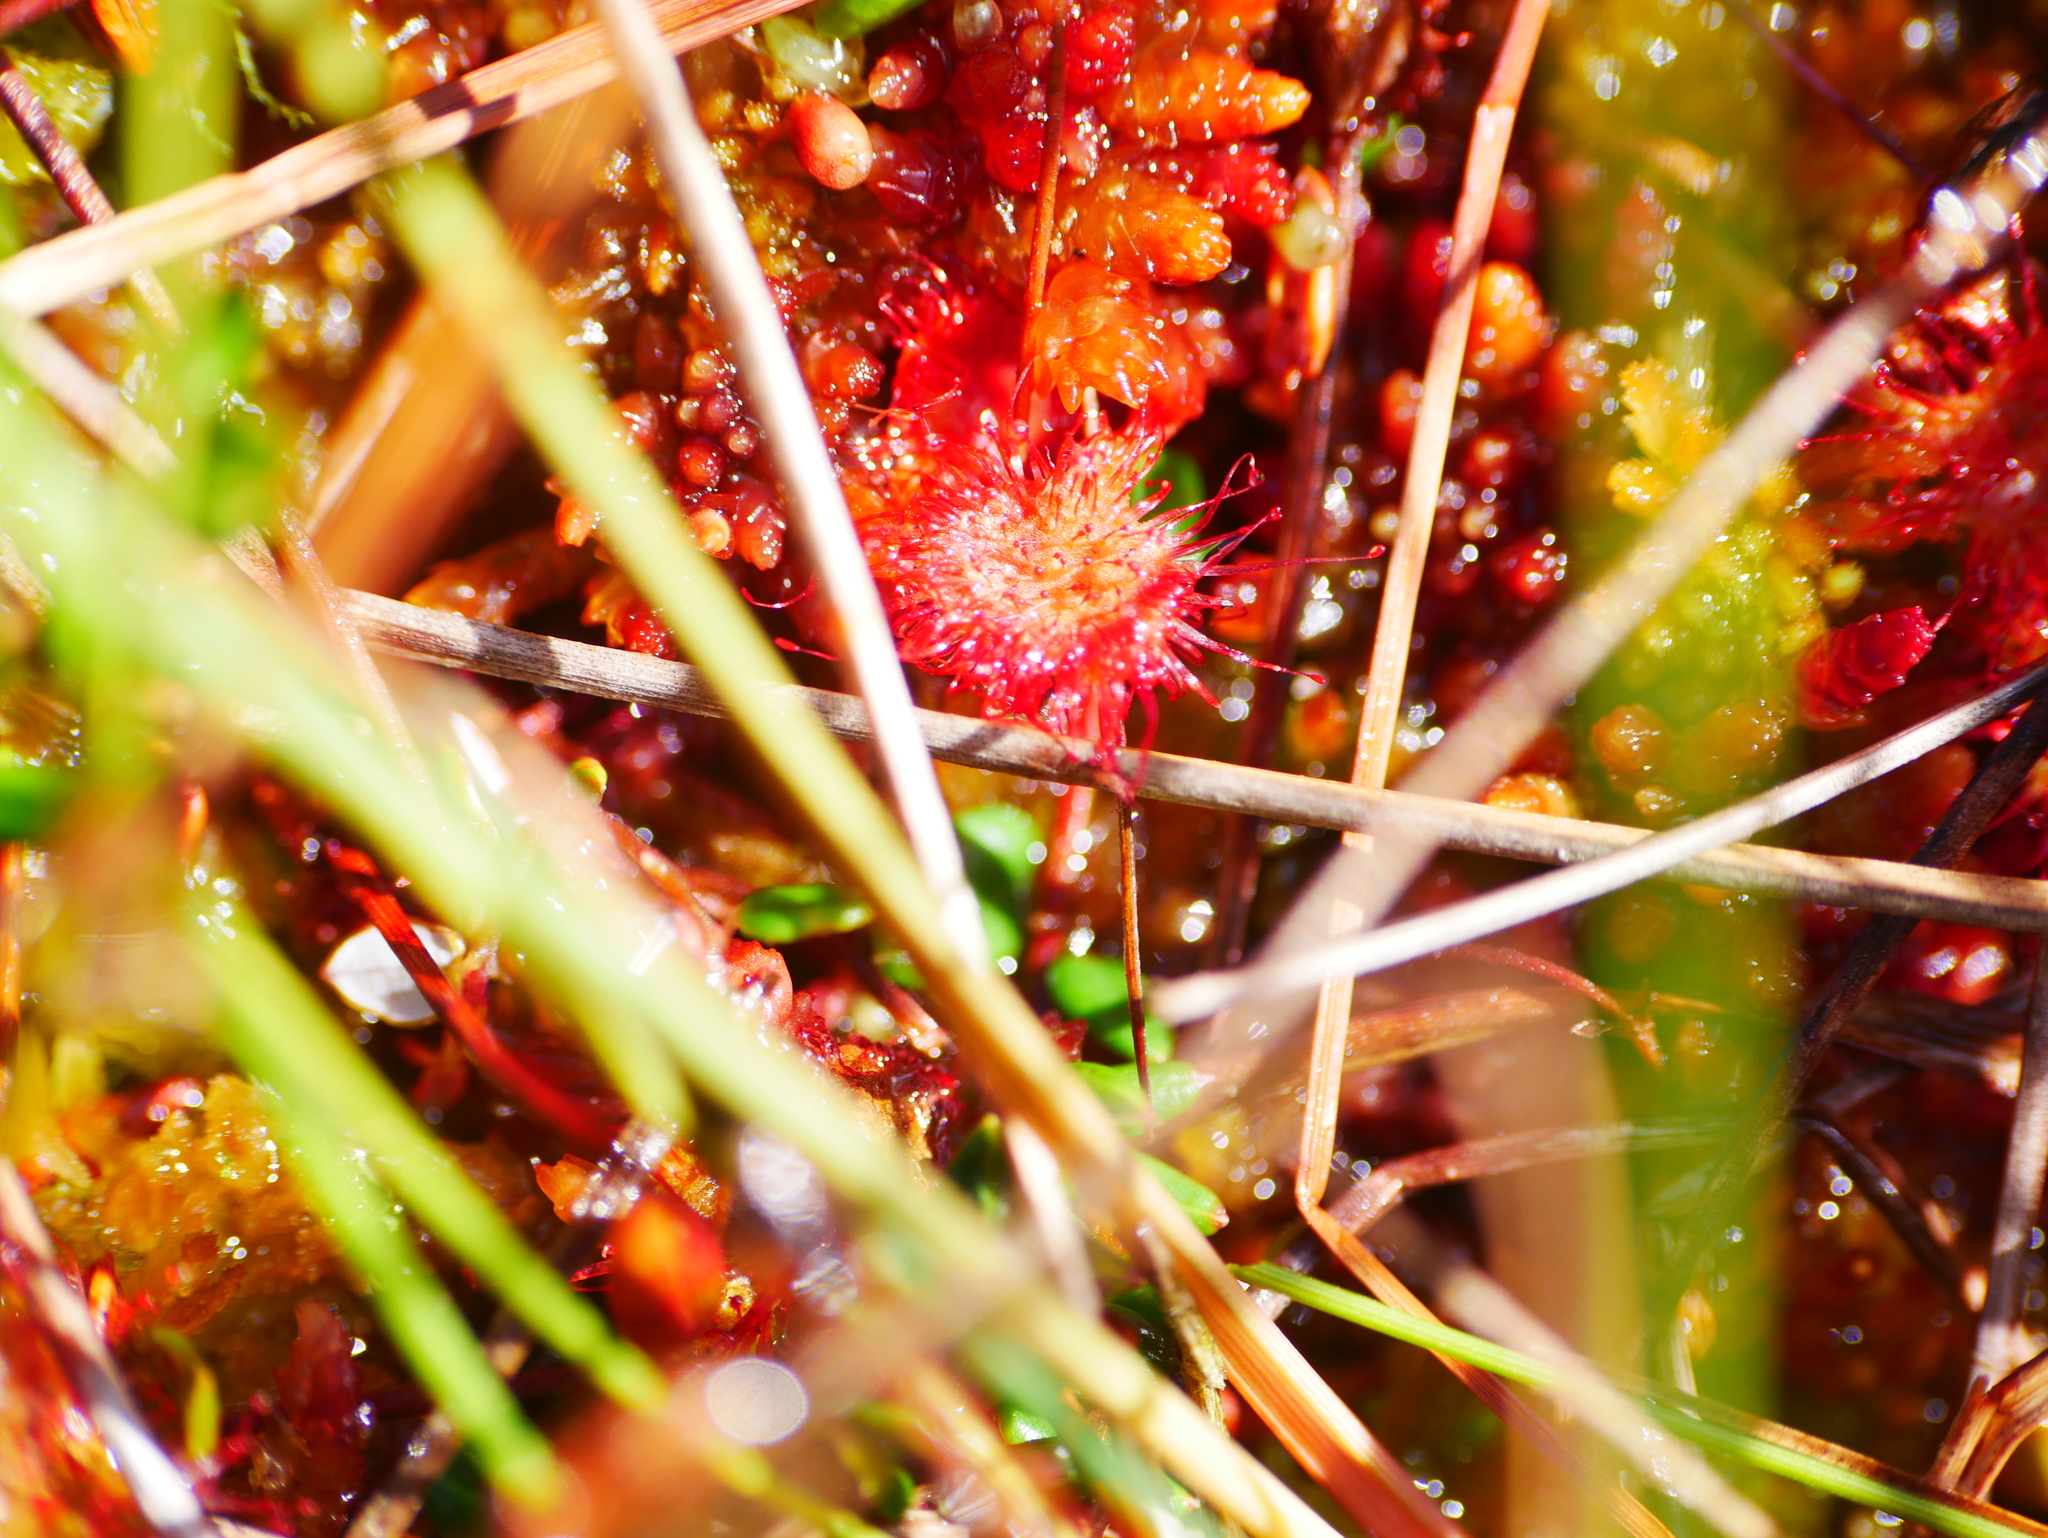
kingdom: Plantae
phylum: Tracheophyta
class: Magnoliopsida
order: Caryophyllales
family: Droseraceae
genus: Drosera
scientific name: Drosera rotundifolia
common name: Round-leaved sundew
